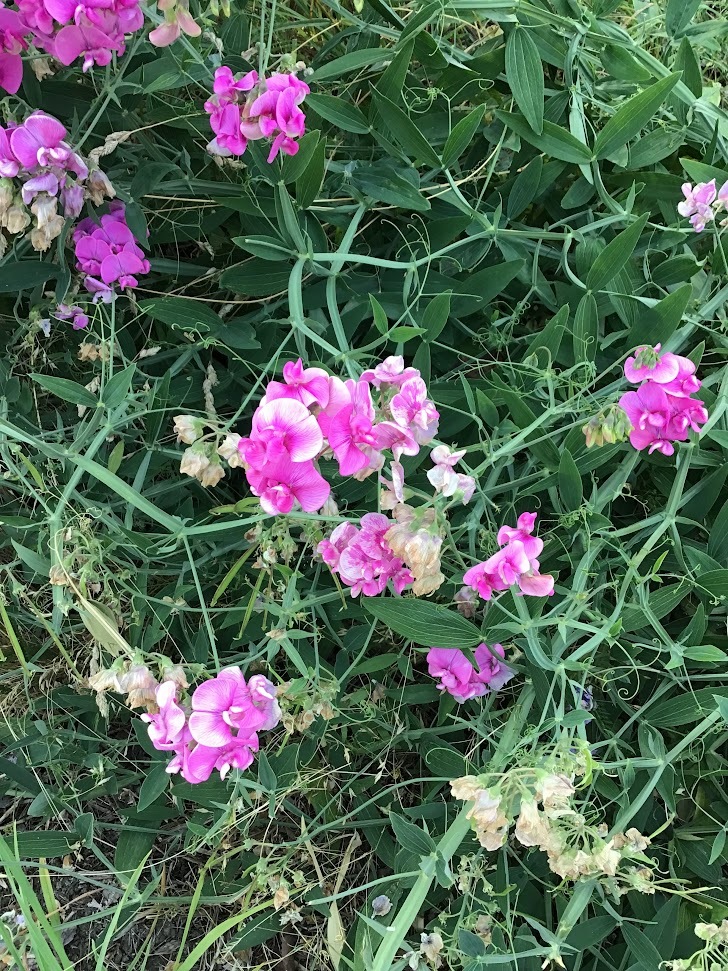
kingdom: Plantae
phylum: Tracheophyta
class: Magnoliopsida
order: Fabales
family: Fabaceae
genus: Lathyrus
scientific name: Lathyrus latifolius
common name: Perennial pea
